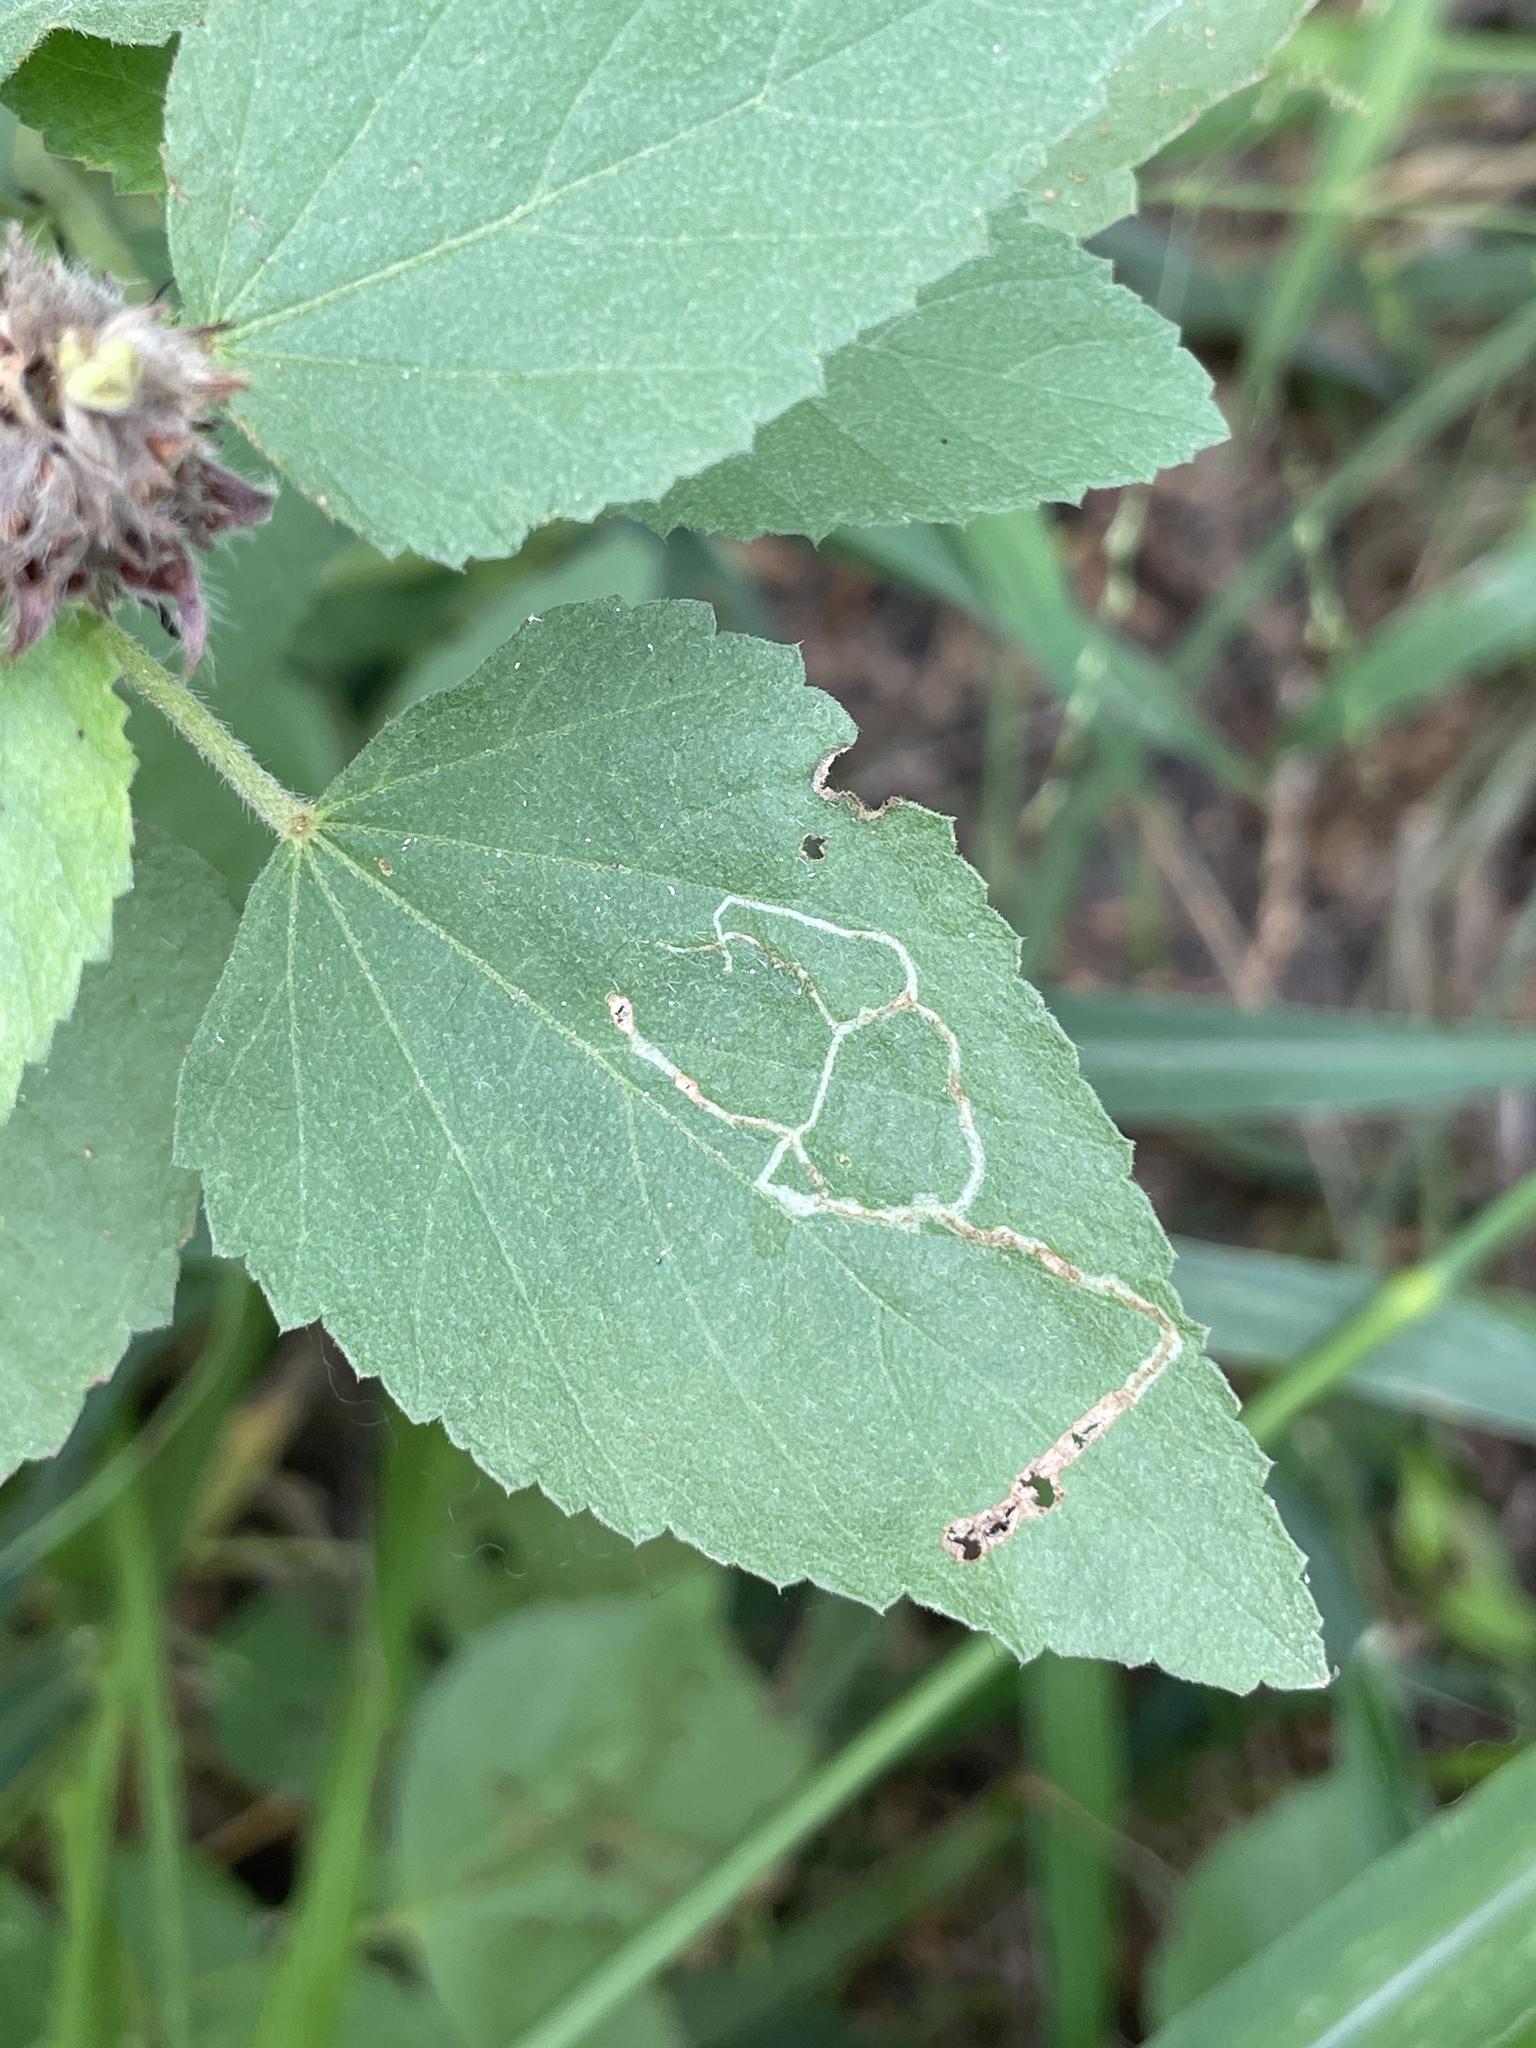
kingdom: Animalia
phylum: Arthropoda
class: Insecta
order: Diptera
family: Agromyzidae
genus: Calycomyza
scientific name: Calycomyza malvae
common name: Mallow leaf miner
